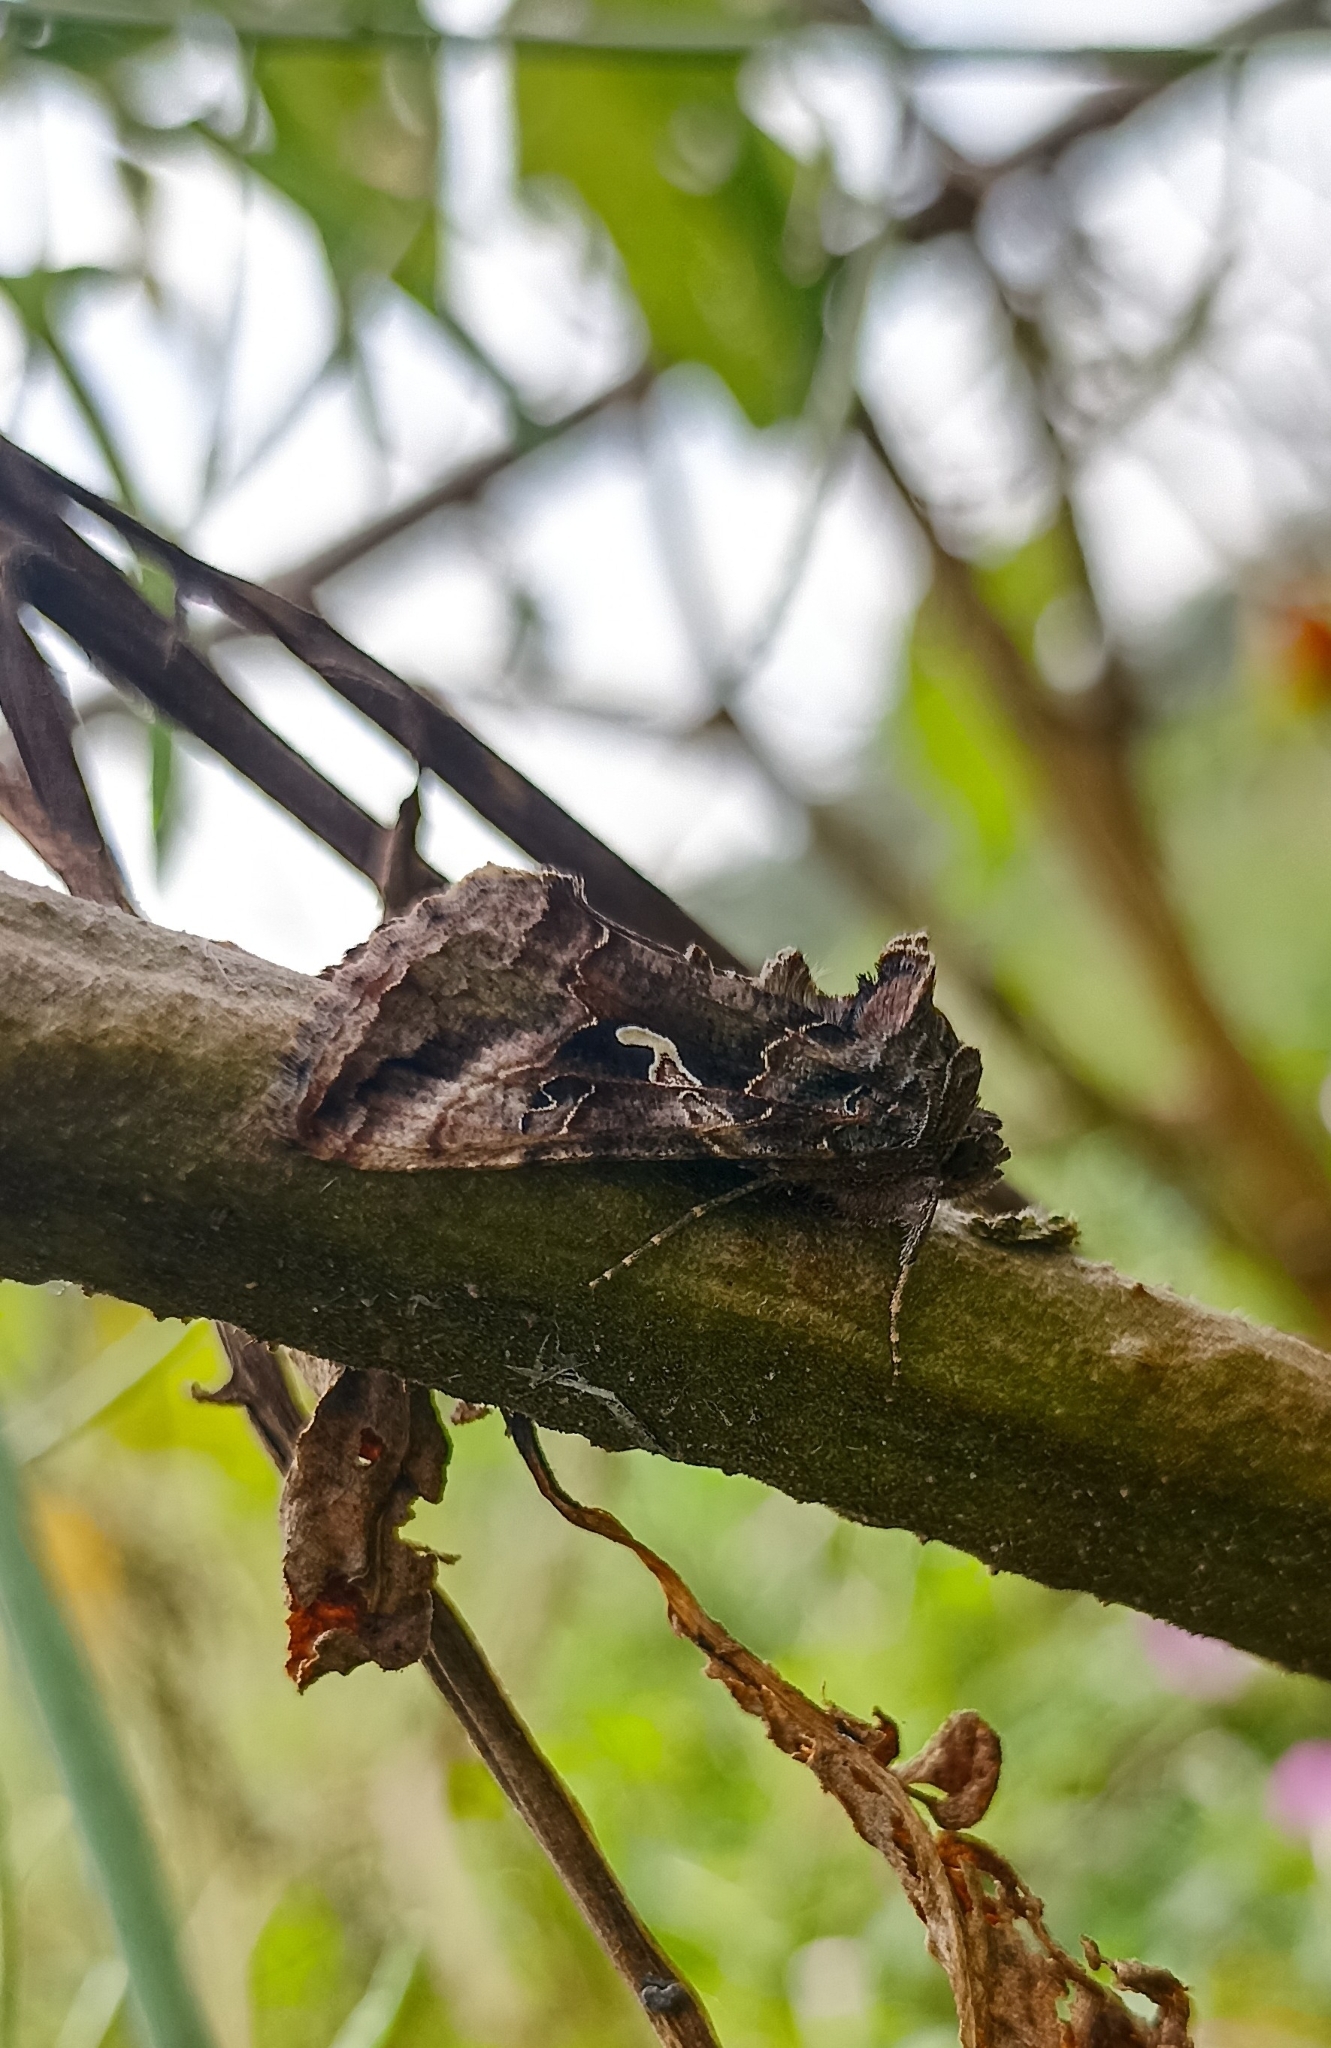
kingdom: Animalia
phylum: Arthropoda
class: Insecta
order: Lepidoptera
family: Noctuidae
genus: Autographa
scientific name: Autographa gamma
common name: Silver y
